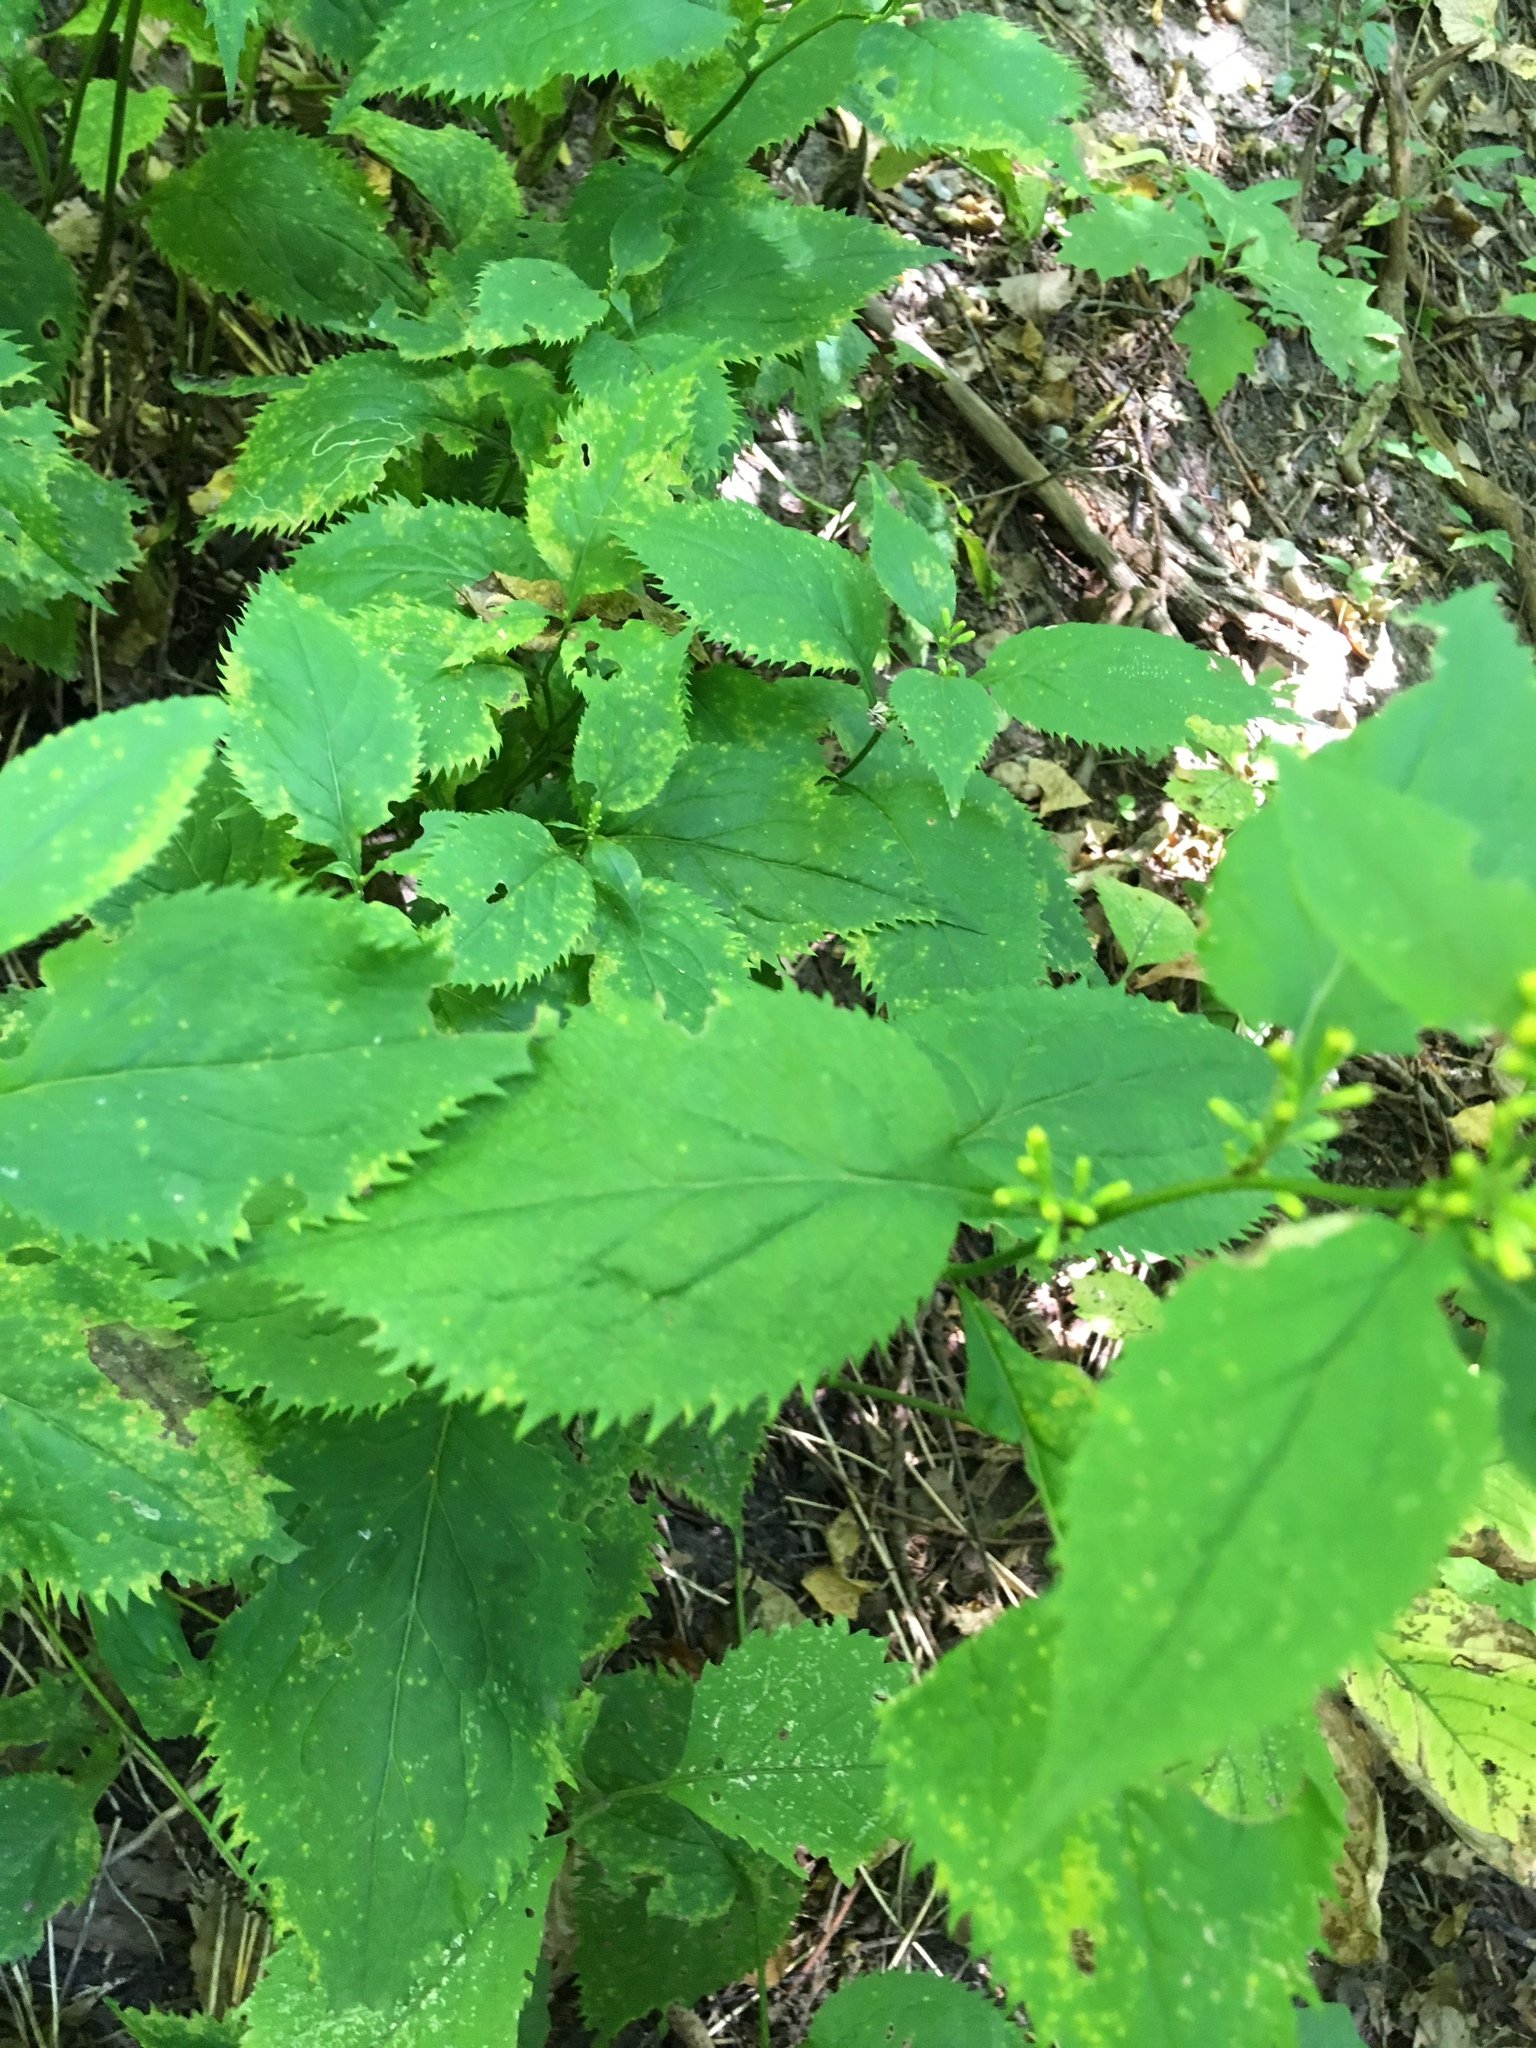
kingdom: Plantae
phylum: Tracheophyta
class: Magnoliopsida
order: Asterales
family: Asteraceae
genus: Solidago
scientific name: Solidago flexicaulis
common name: Zig-zag goldenrod
